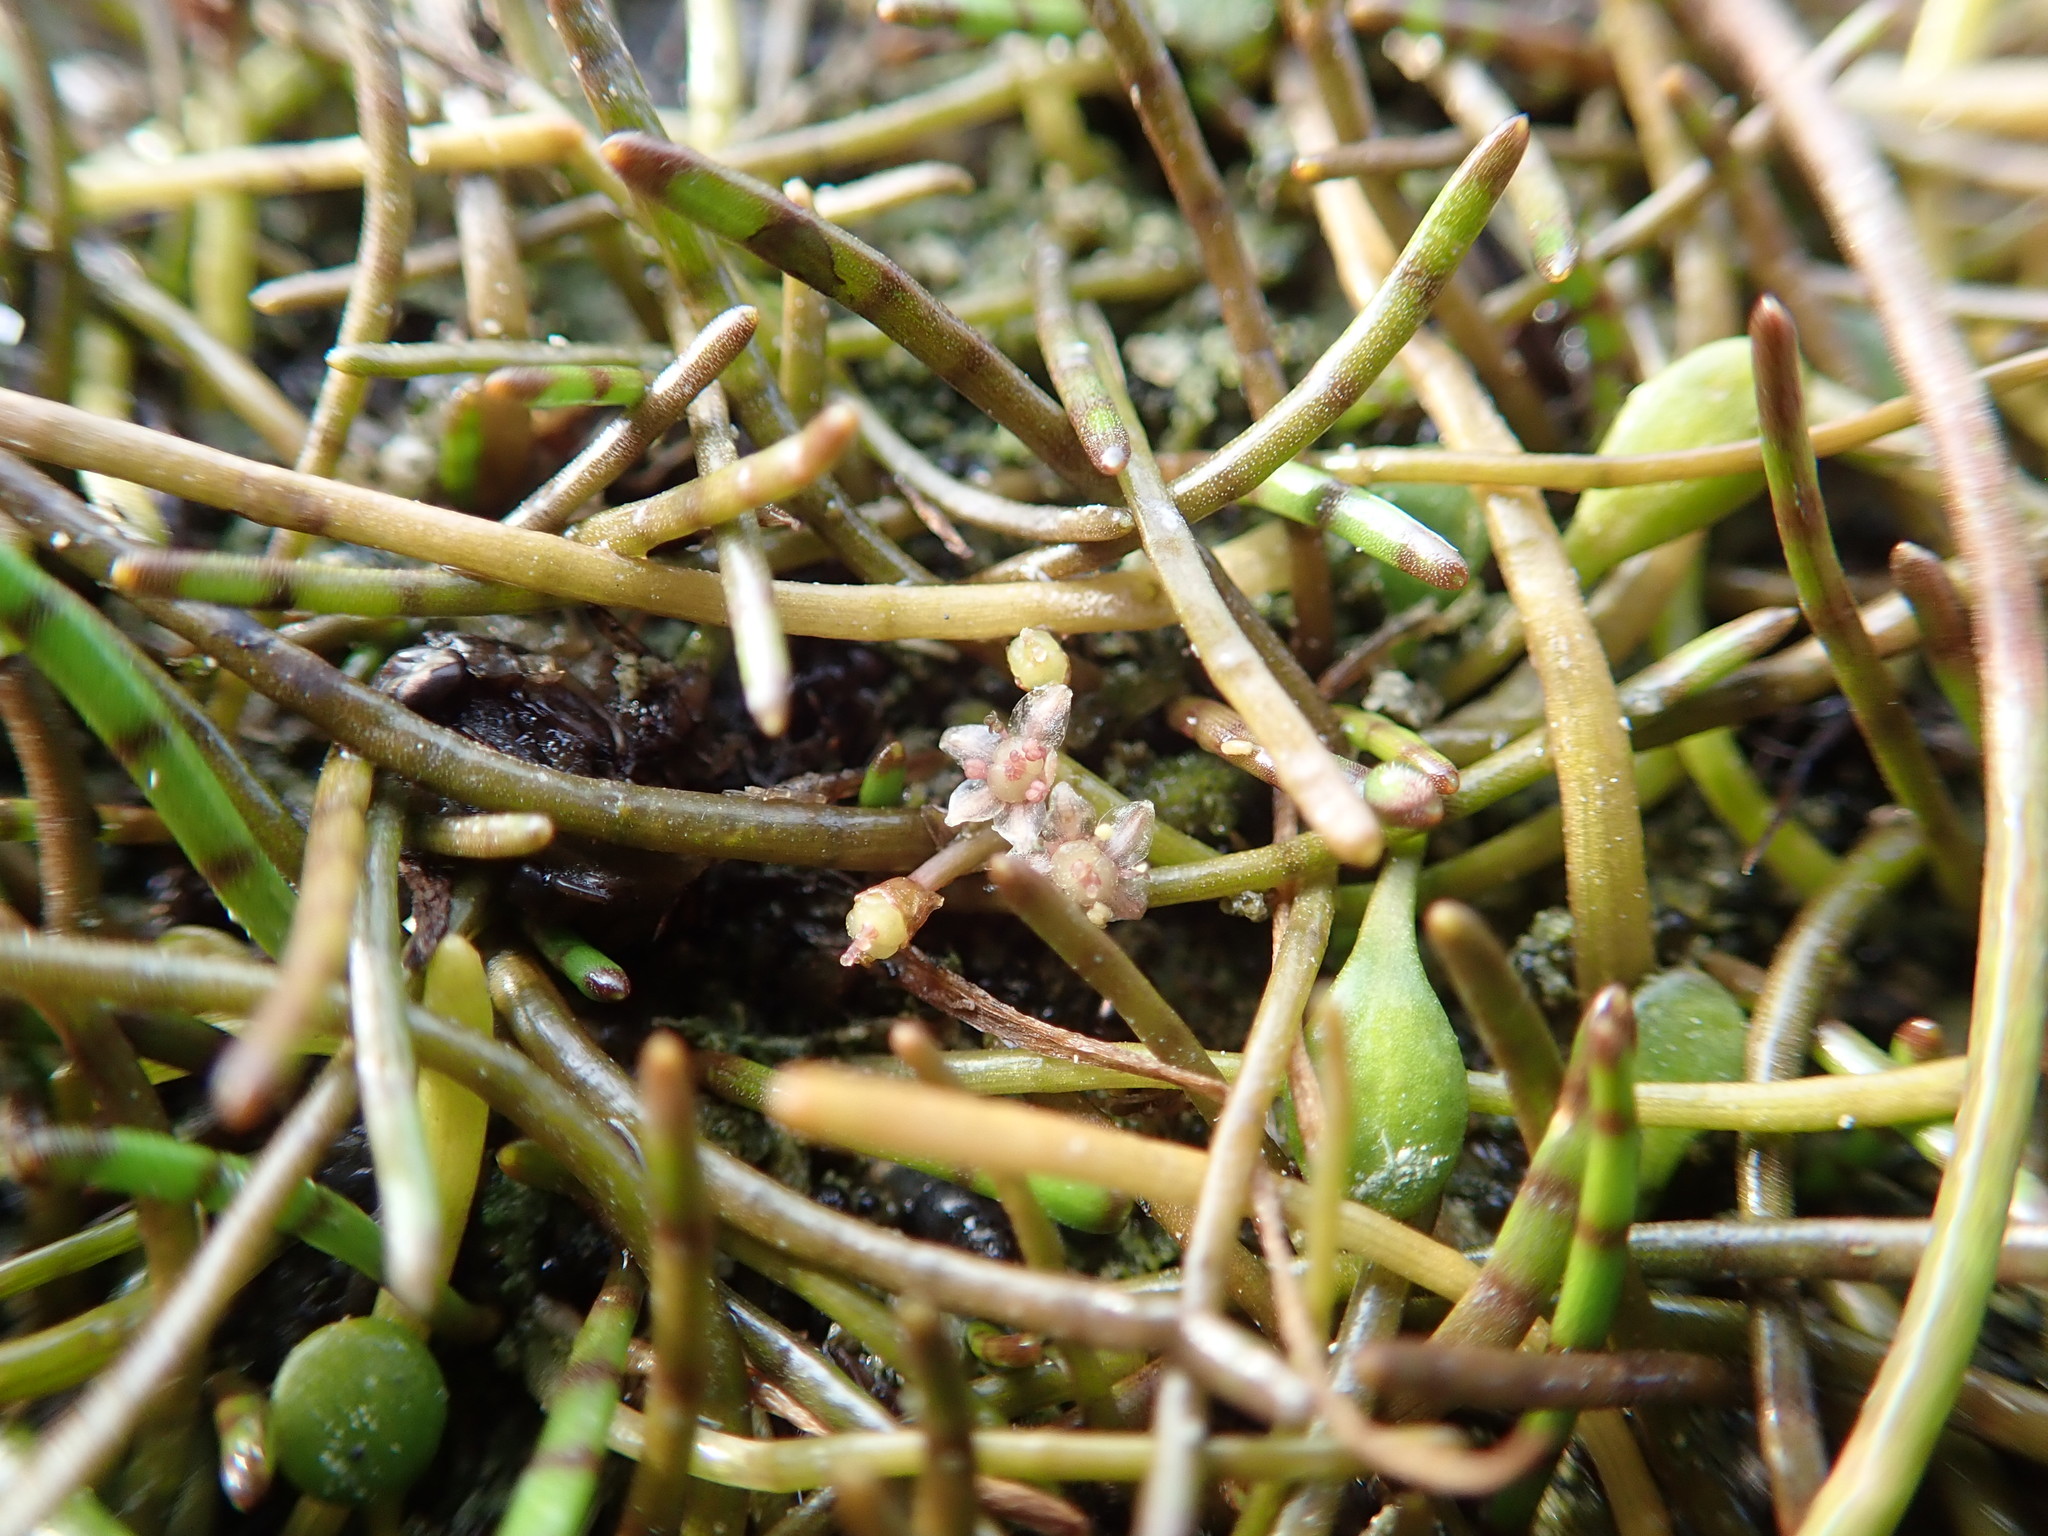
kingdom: Plantae
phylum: Tracheophyta
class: Magnoliopsida
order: Apiales
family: Apiaceae
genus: Lilaeopsis
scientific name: Lilaeopsis novae-zelandiae
